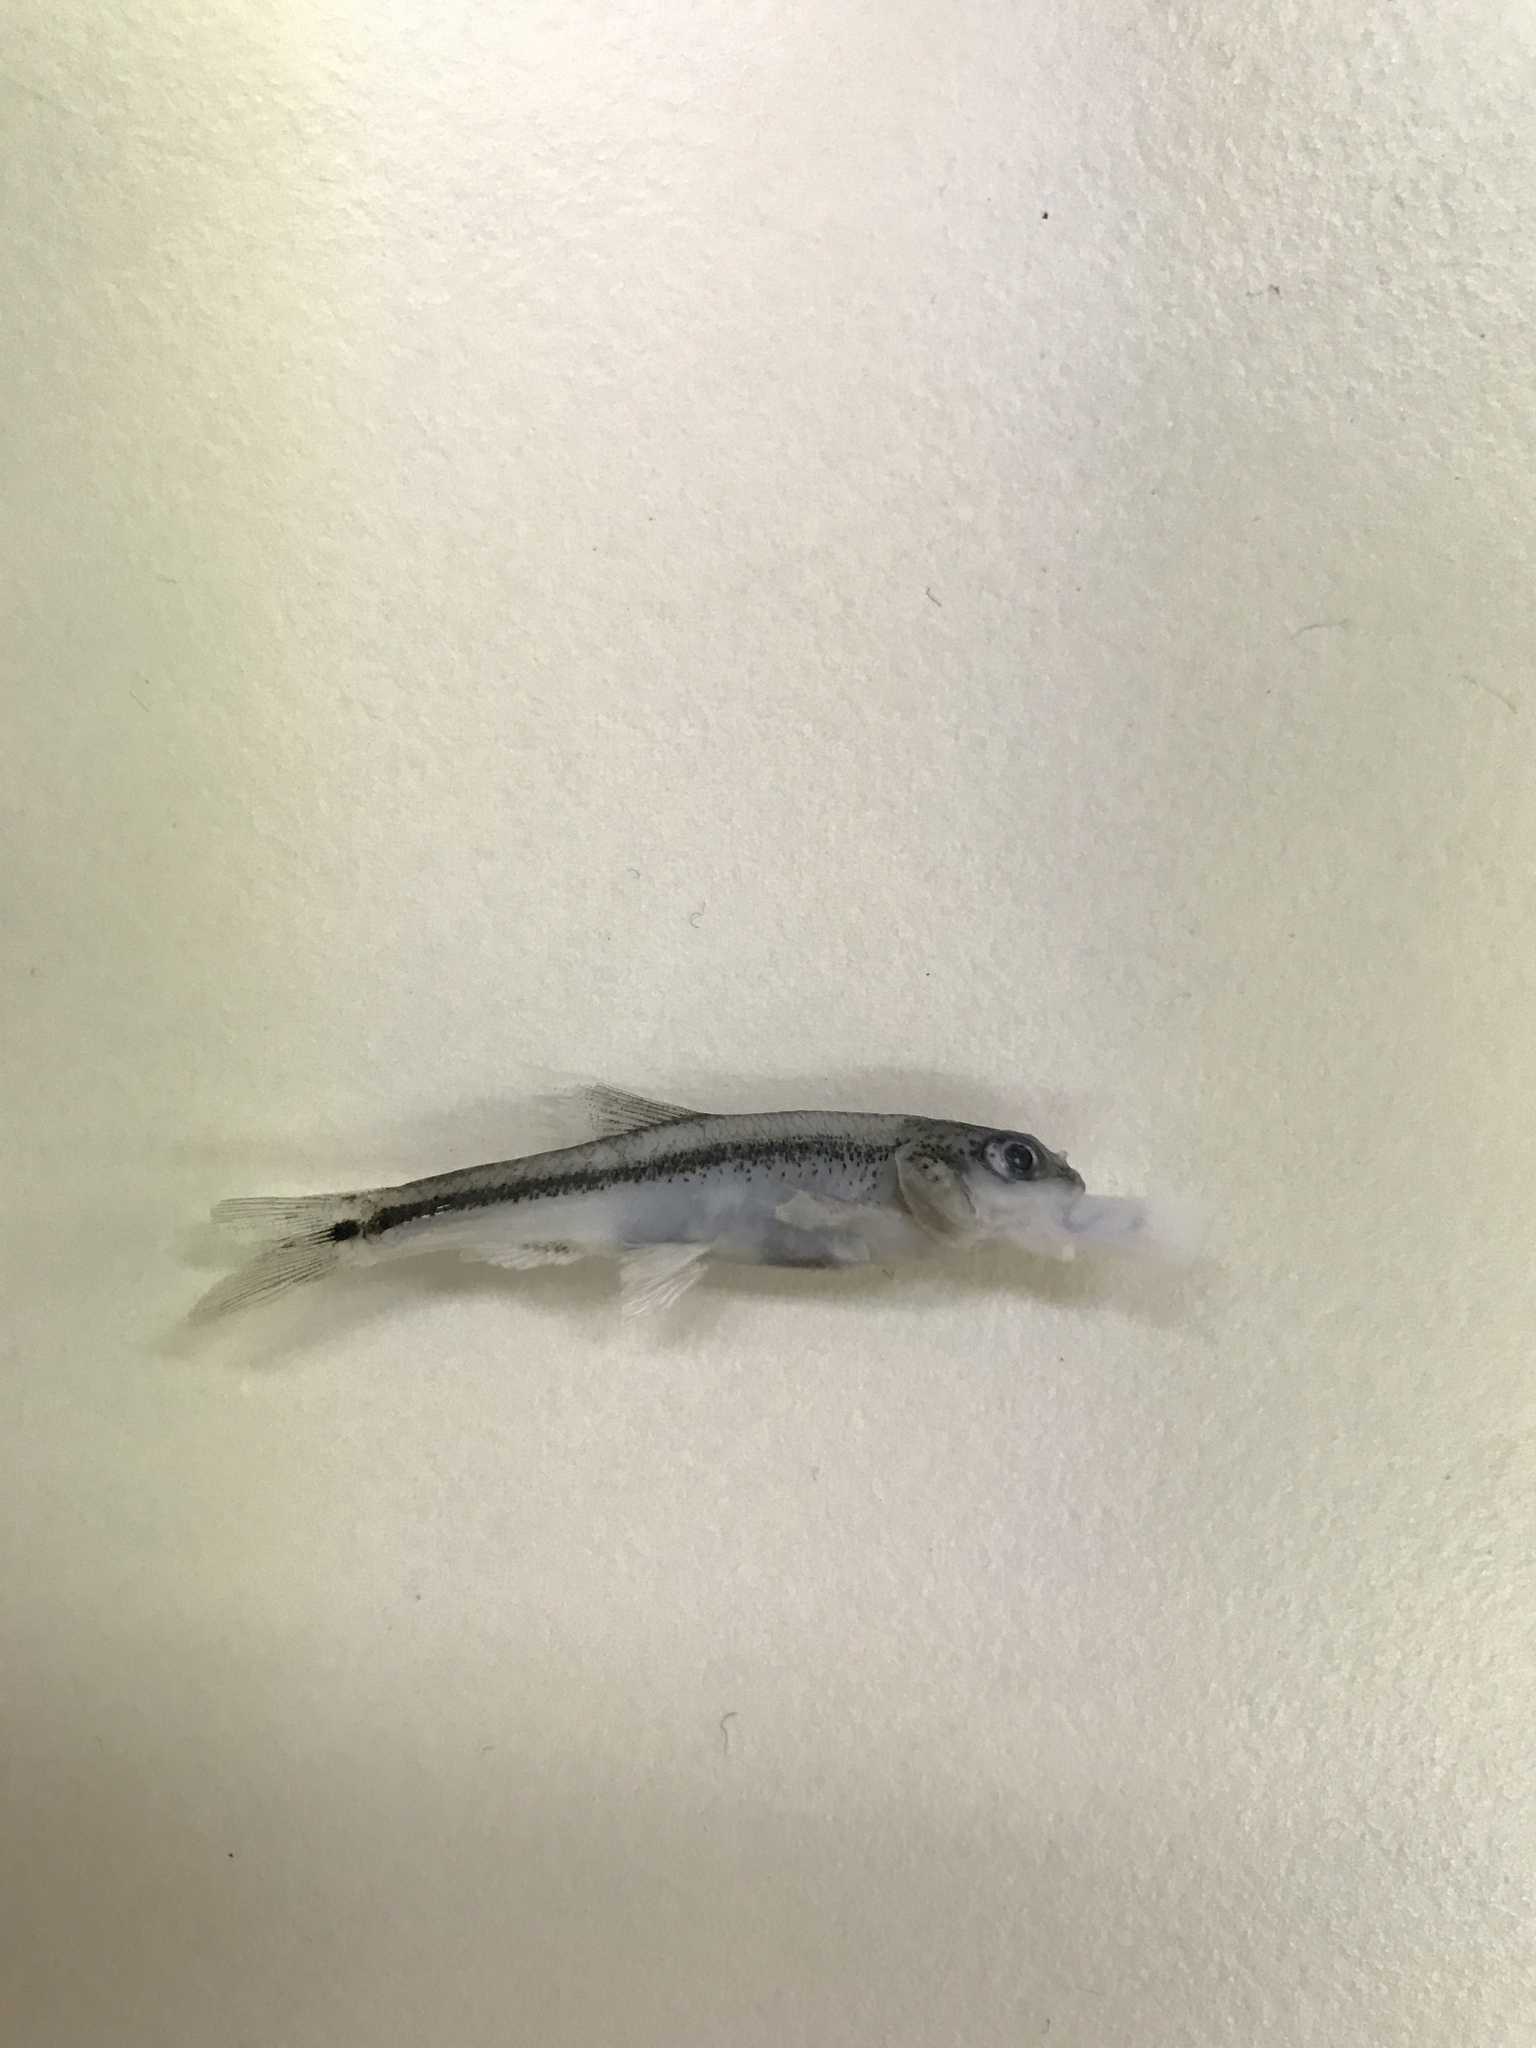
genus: Alburnops
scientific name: Alburnops
